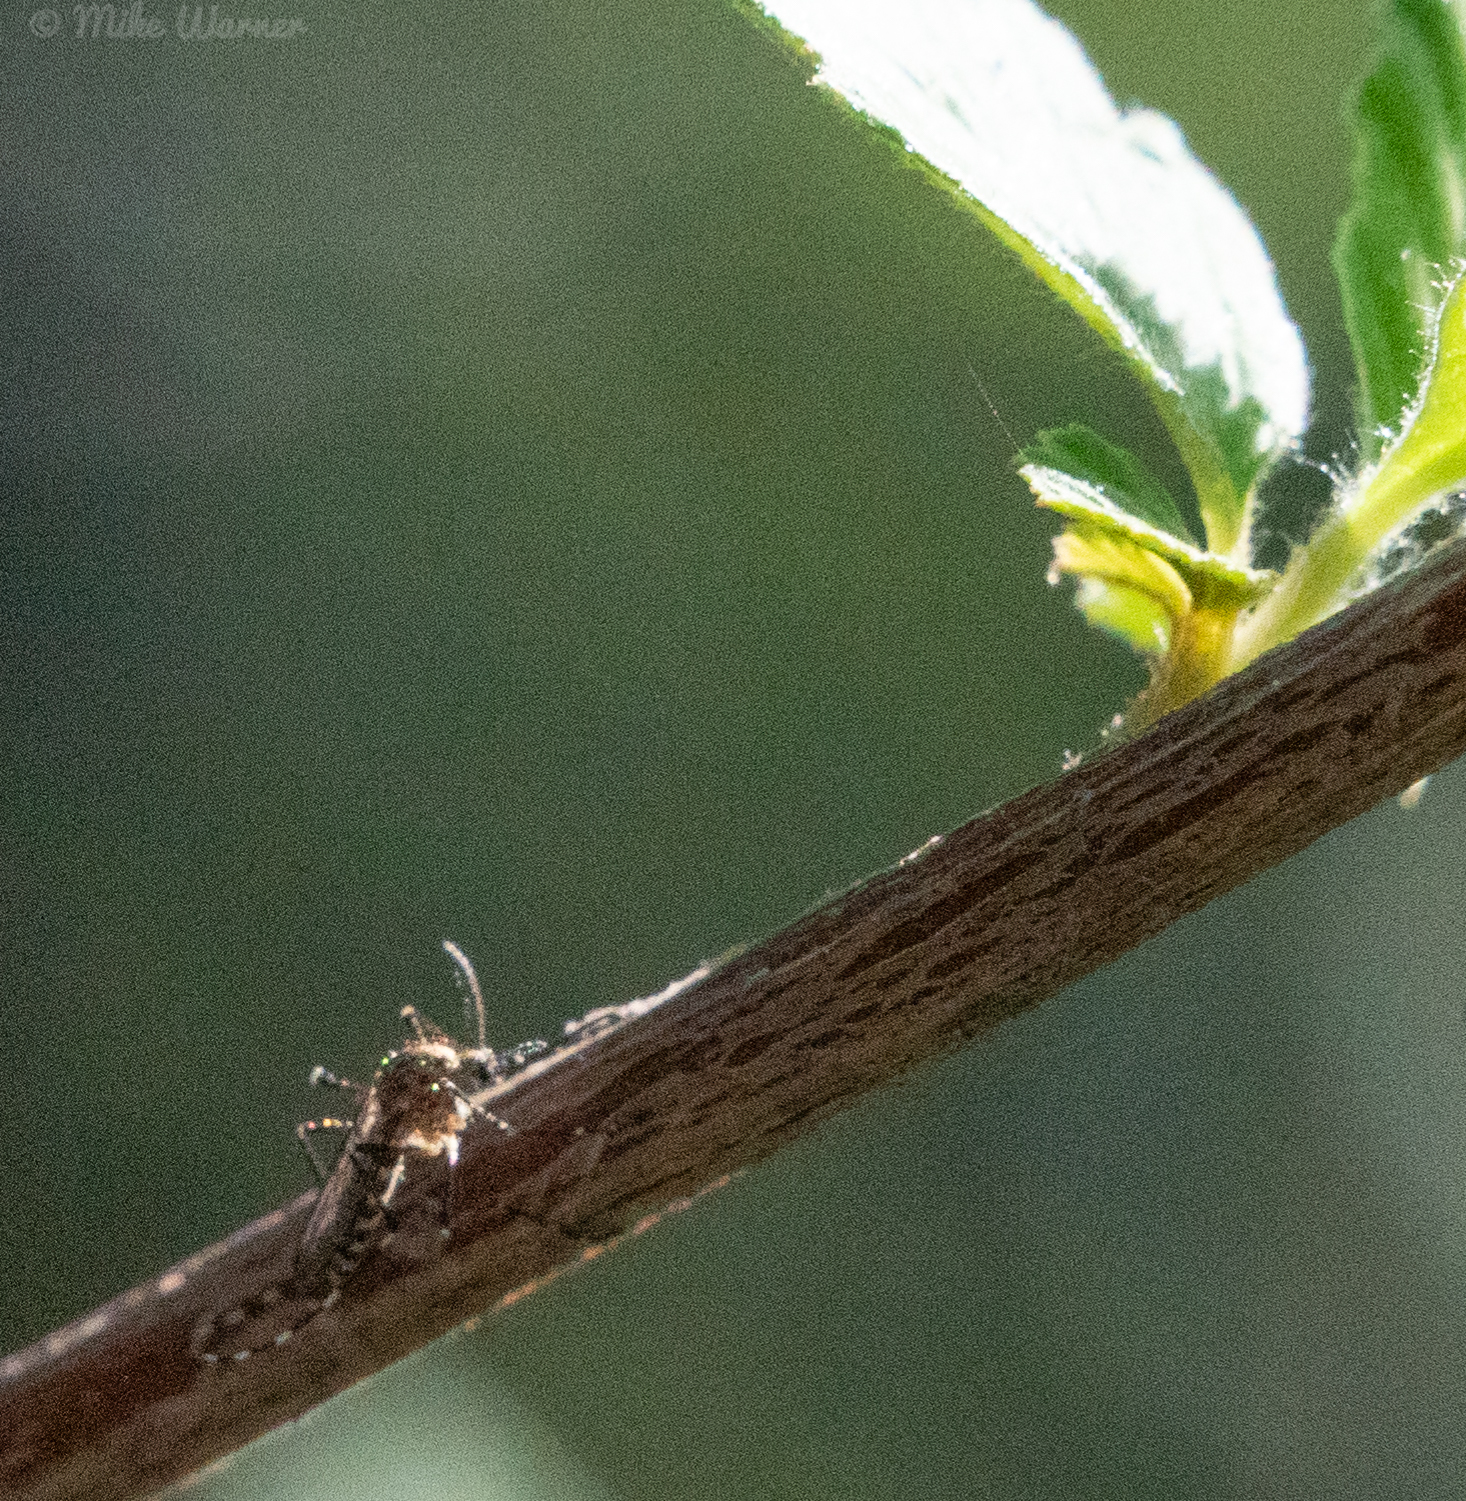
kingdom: Animalia
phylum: Arthropoda
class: Insecta
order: Diptera
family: Culicidae
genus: Aedes
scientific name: Aedes sierrensis
